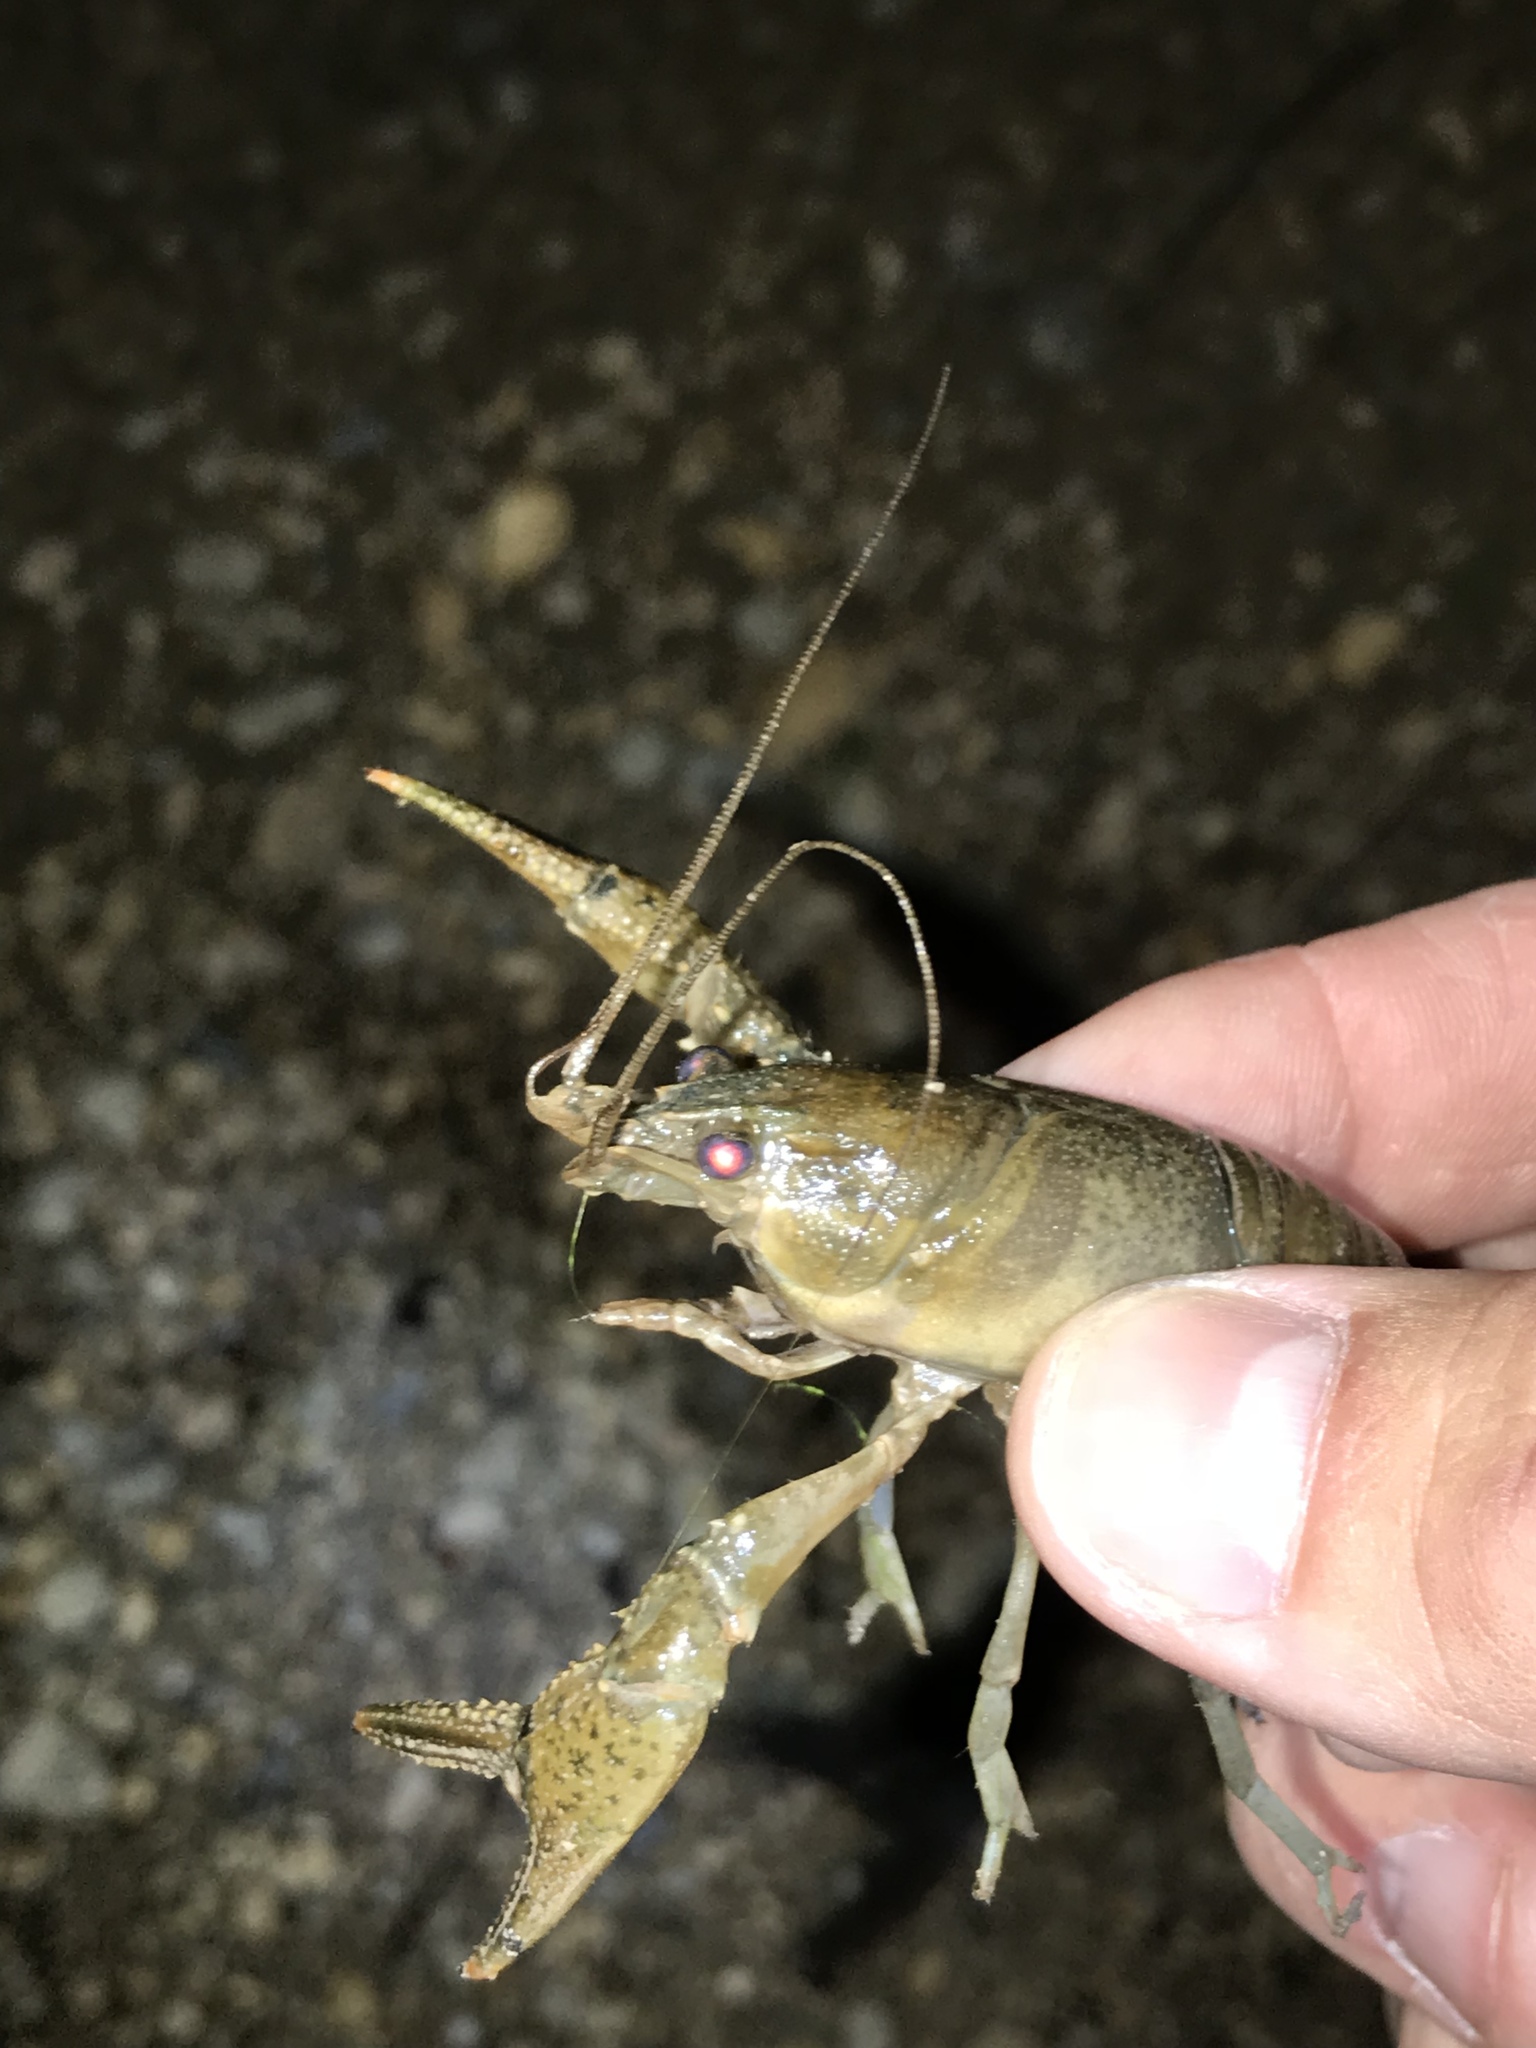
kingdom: Animalia
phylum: Arthropoda
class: Malacostraca
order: Decapoda
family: Cambaridae
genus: Faxonius
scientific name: Faxonius occidentalis
